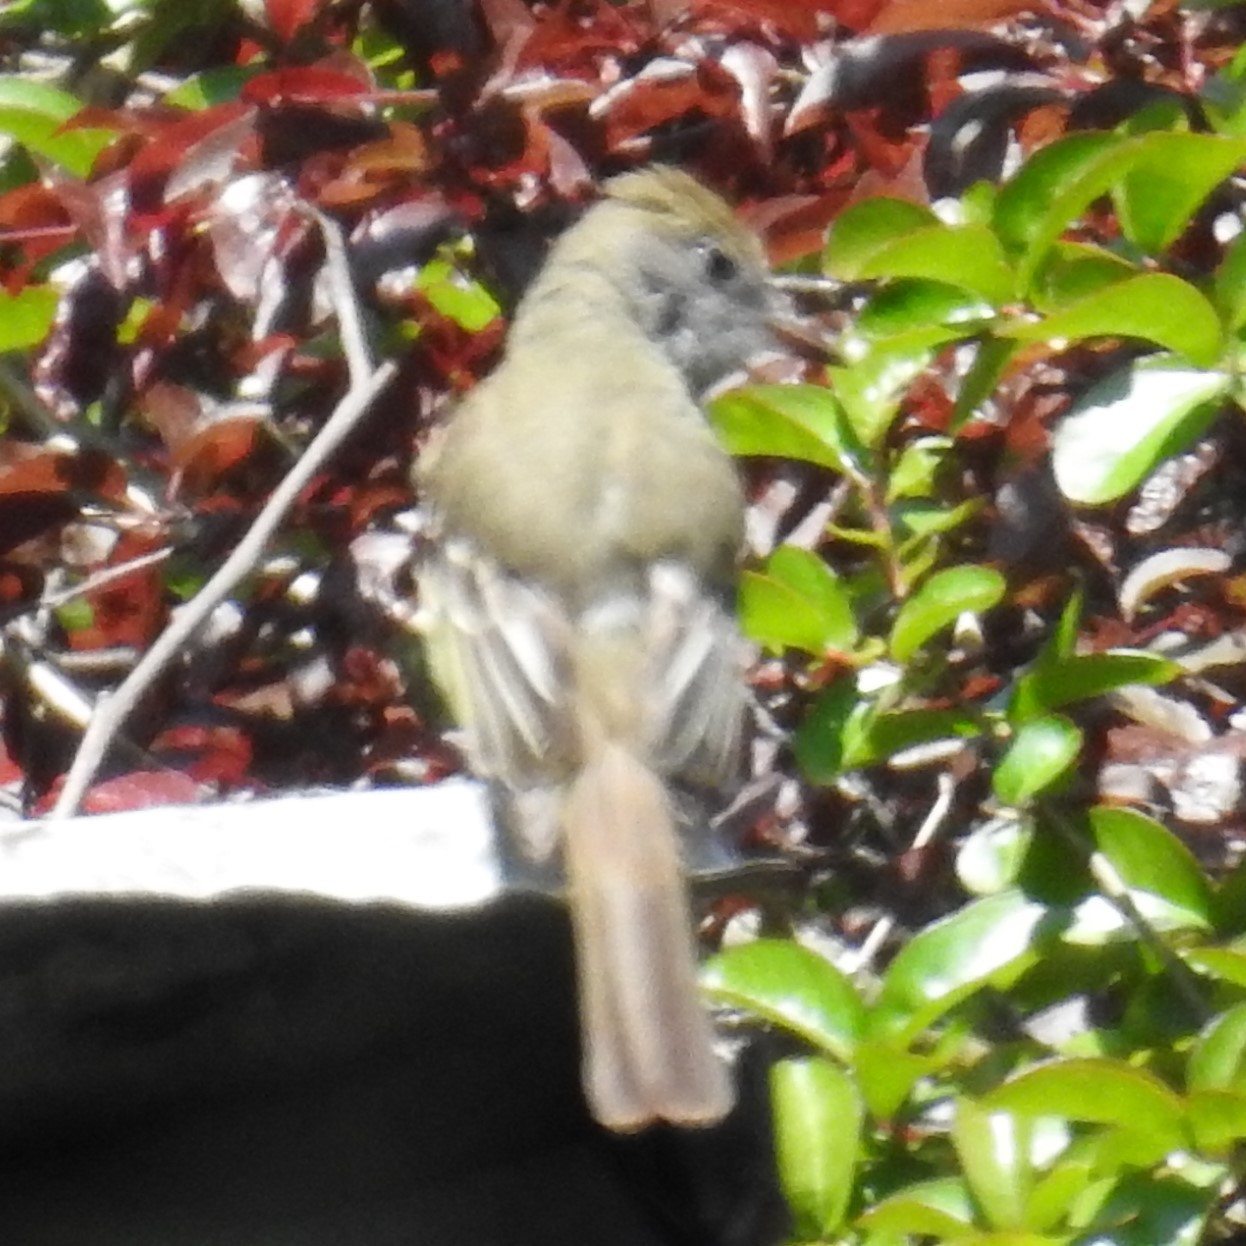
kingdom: Animalia
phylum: Chordata
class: Aves
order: Passeriformes
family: Tyrannidae
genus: Myiarchus
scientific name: Myiarchus crinitus
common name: Great crested flycatcher
